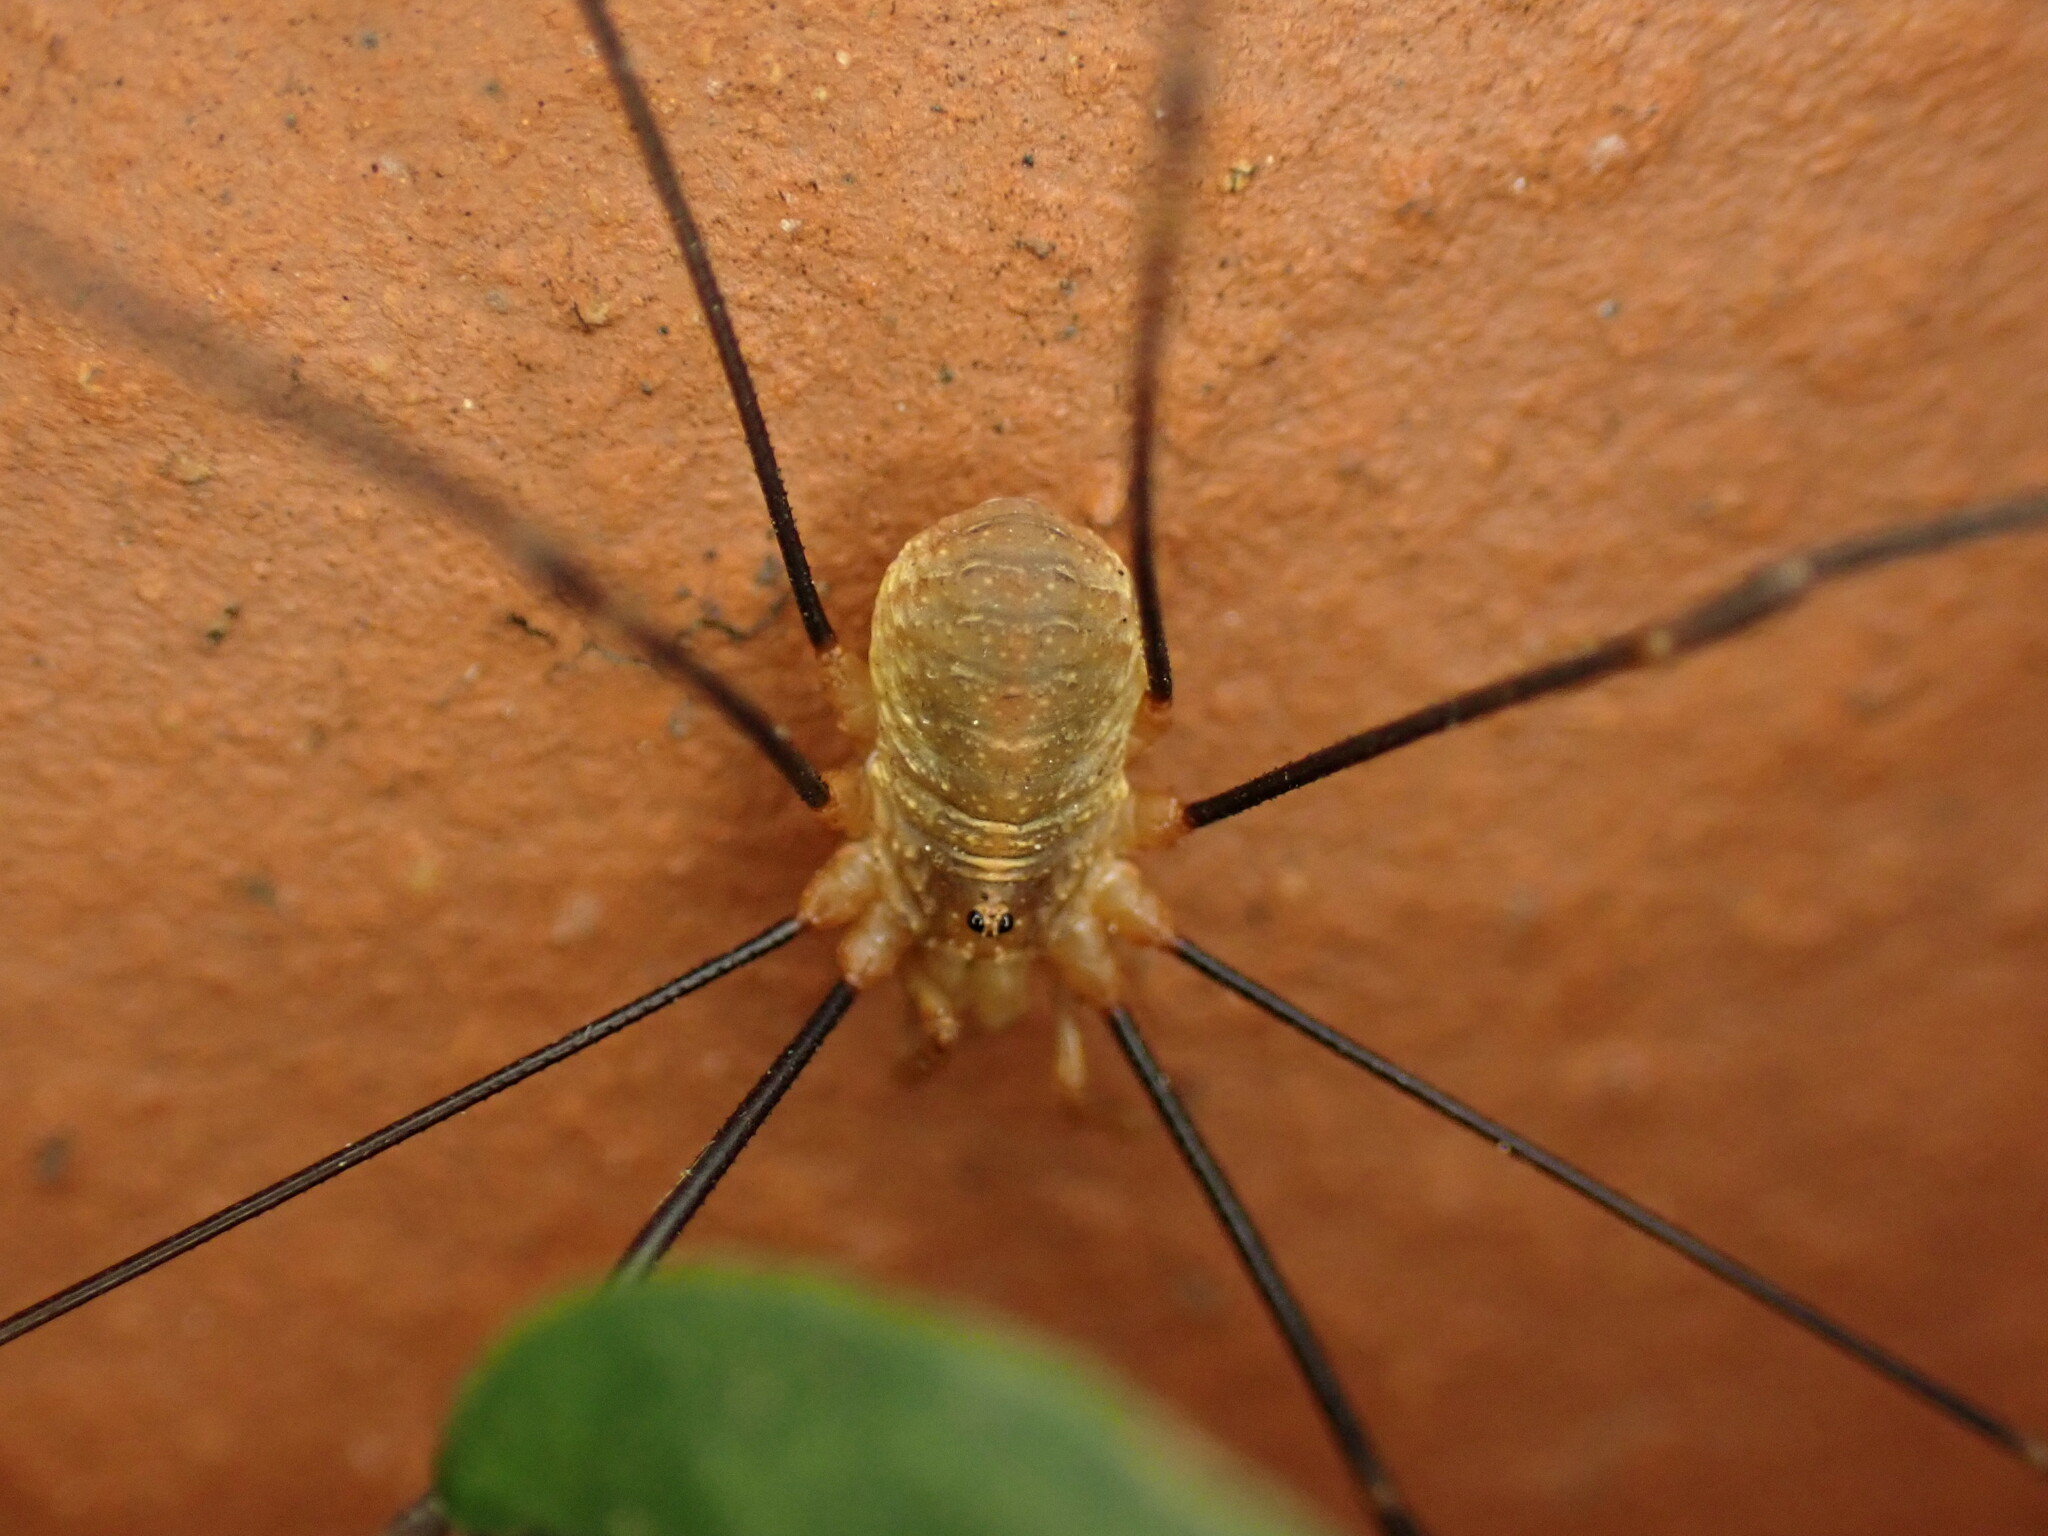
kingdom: Animalia
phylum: Arthropoda
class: Arachnida
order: Opiliones
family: Phalangiidae
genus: Opilio
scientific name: Opilio canestrinii
